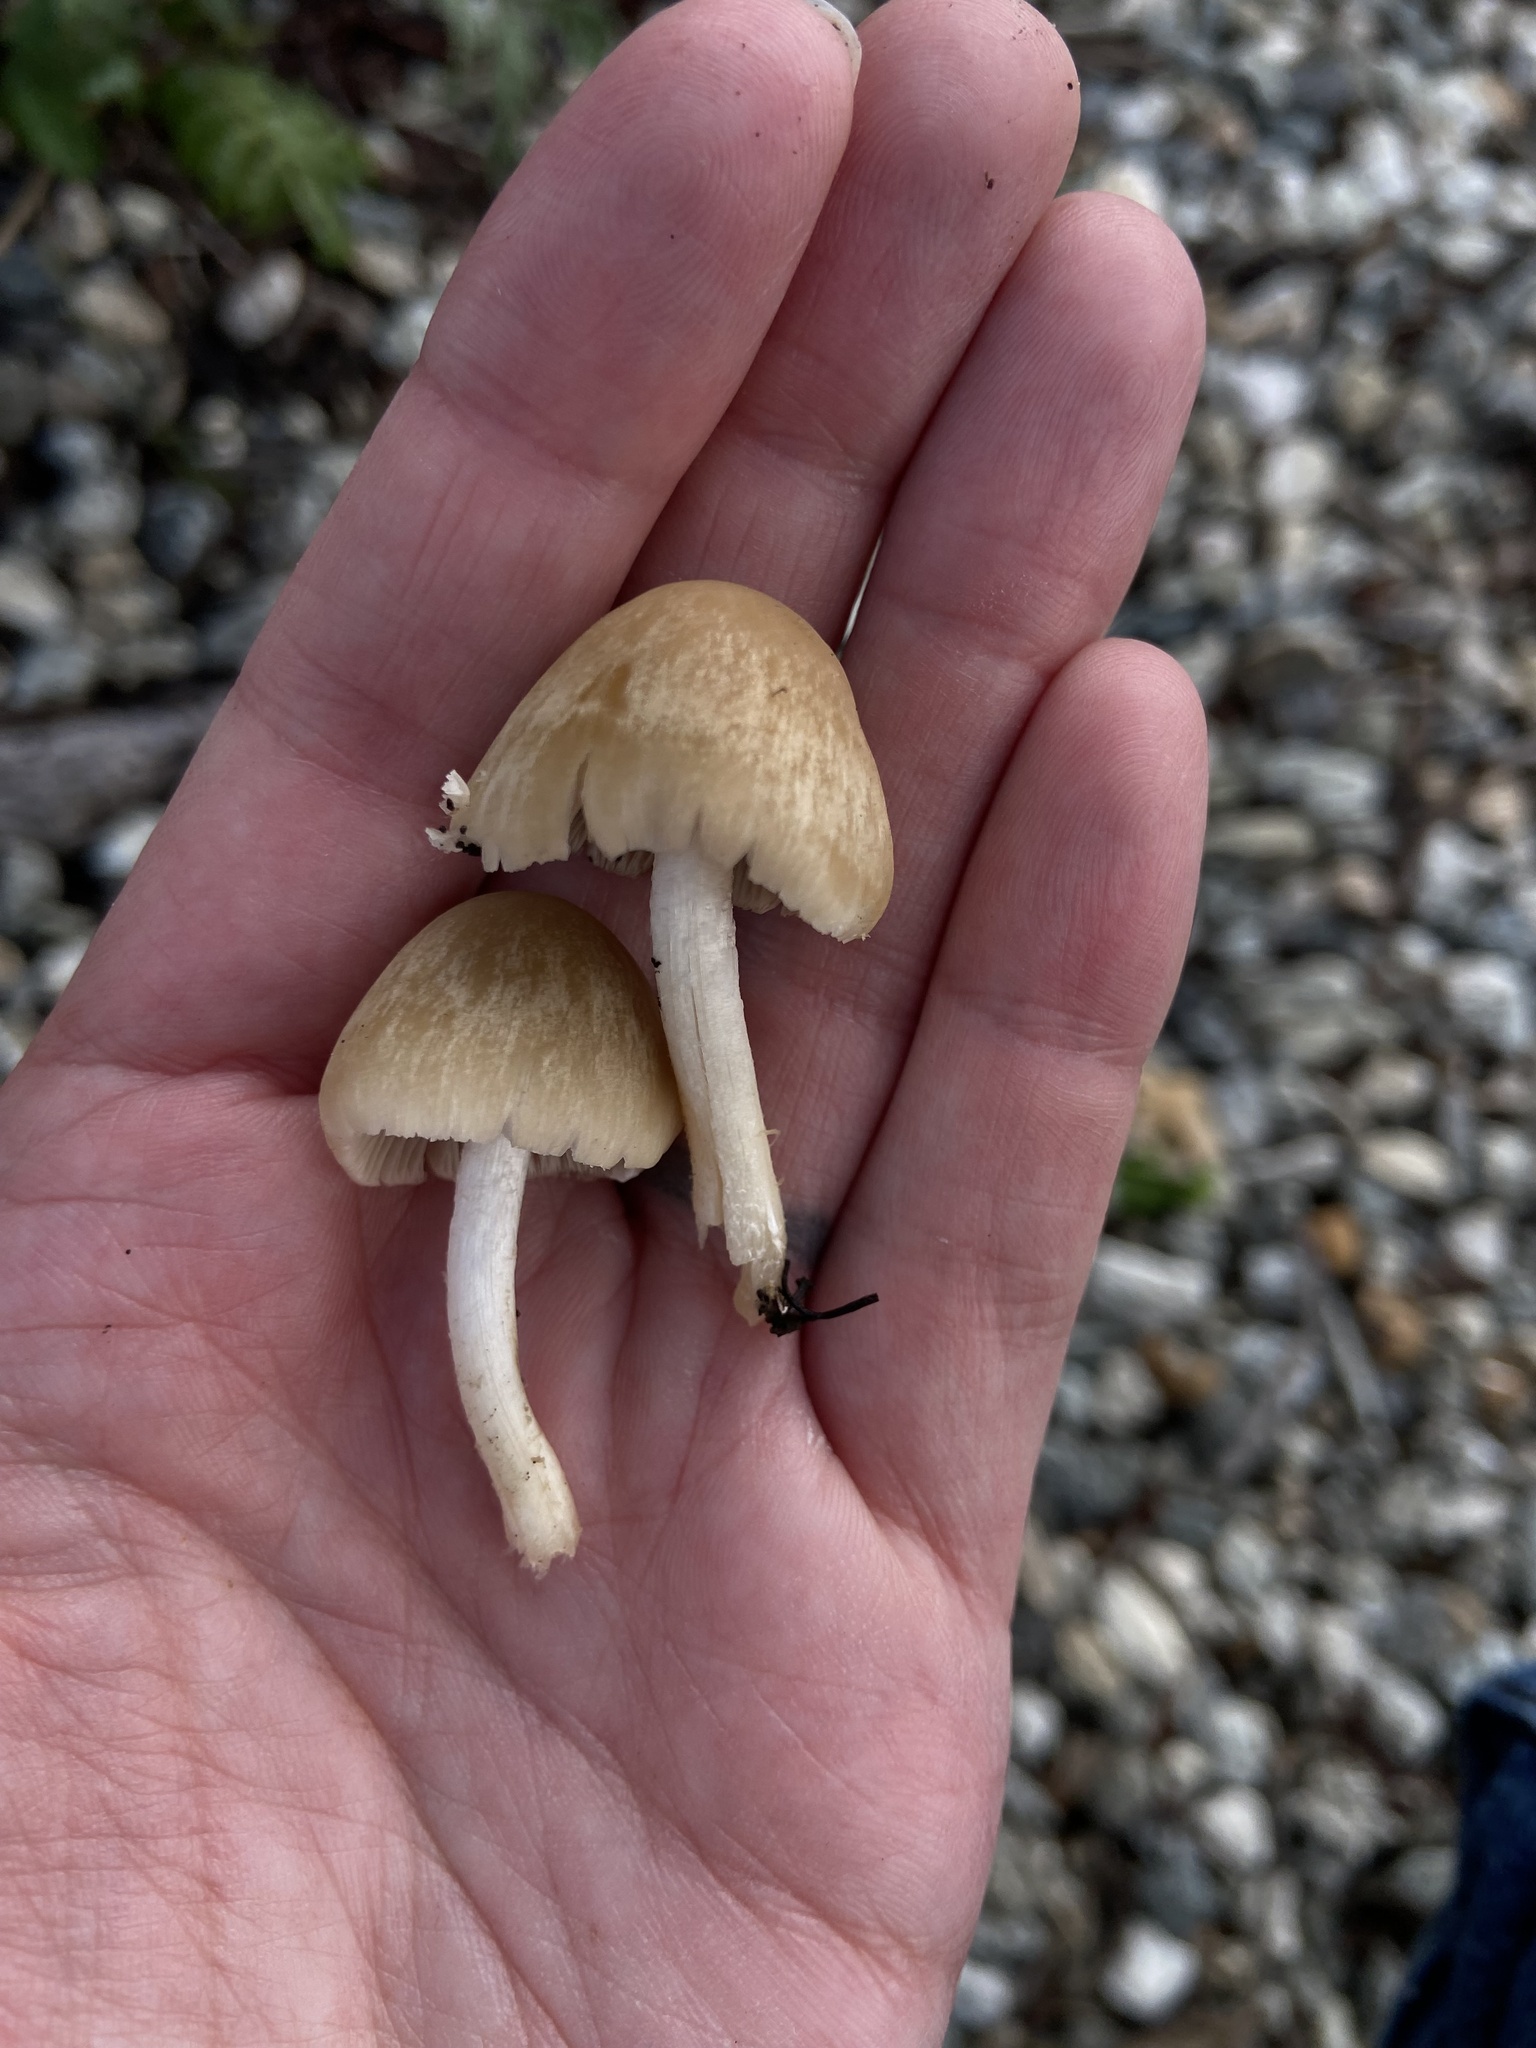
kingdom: Fungi
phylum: Basidiomycota
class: Agaricomycetes
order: Agaricales
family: Psathyrellaceae
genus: Candolleomyces
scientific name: Candolleomyces candolleanus
